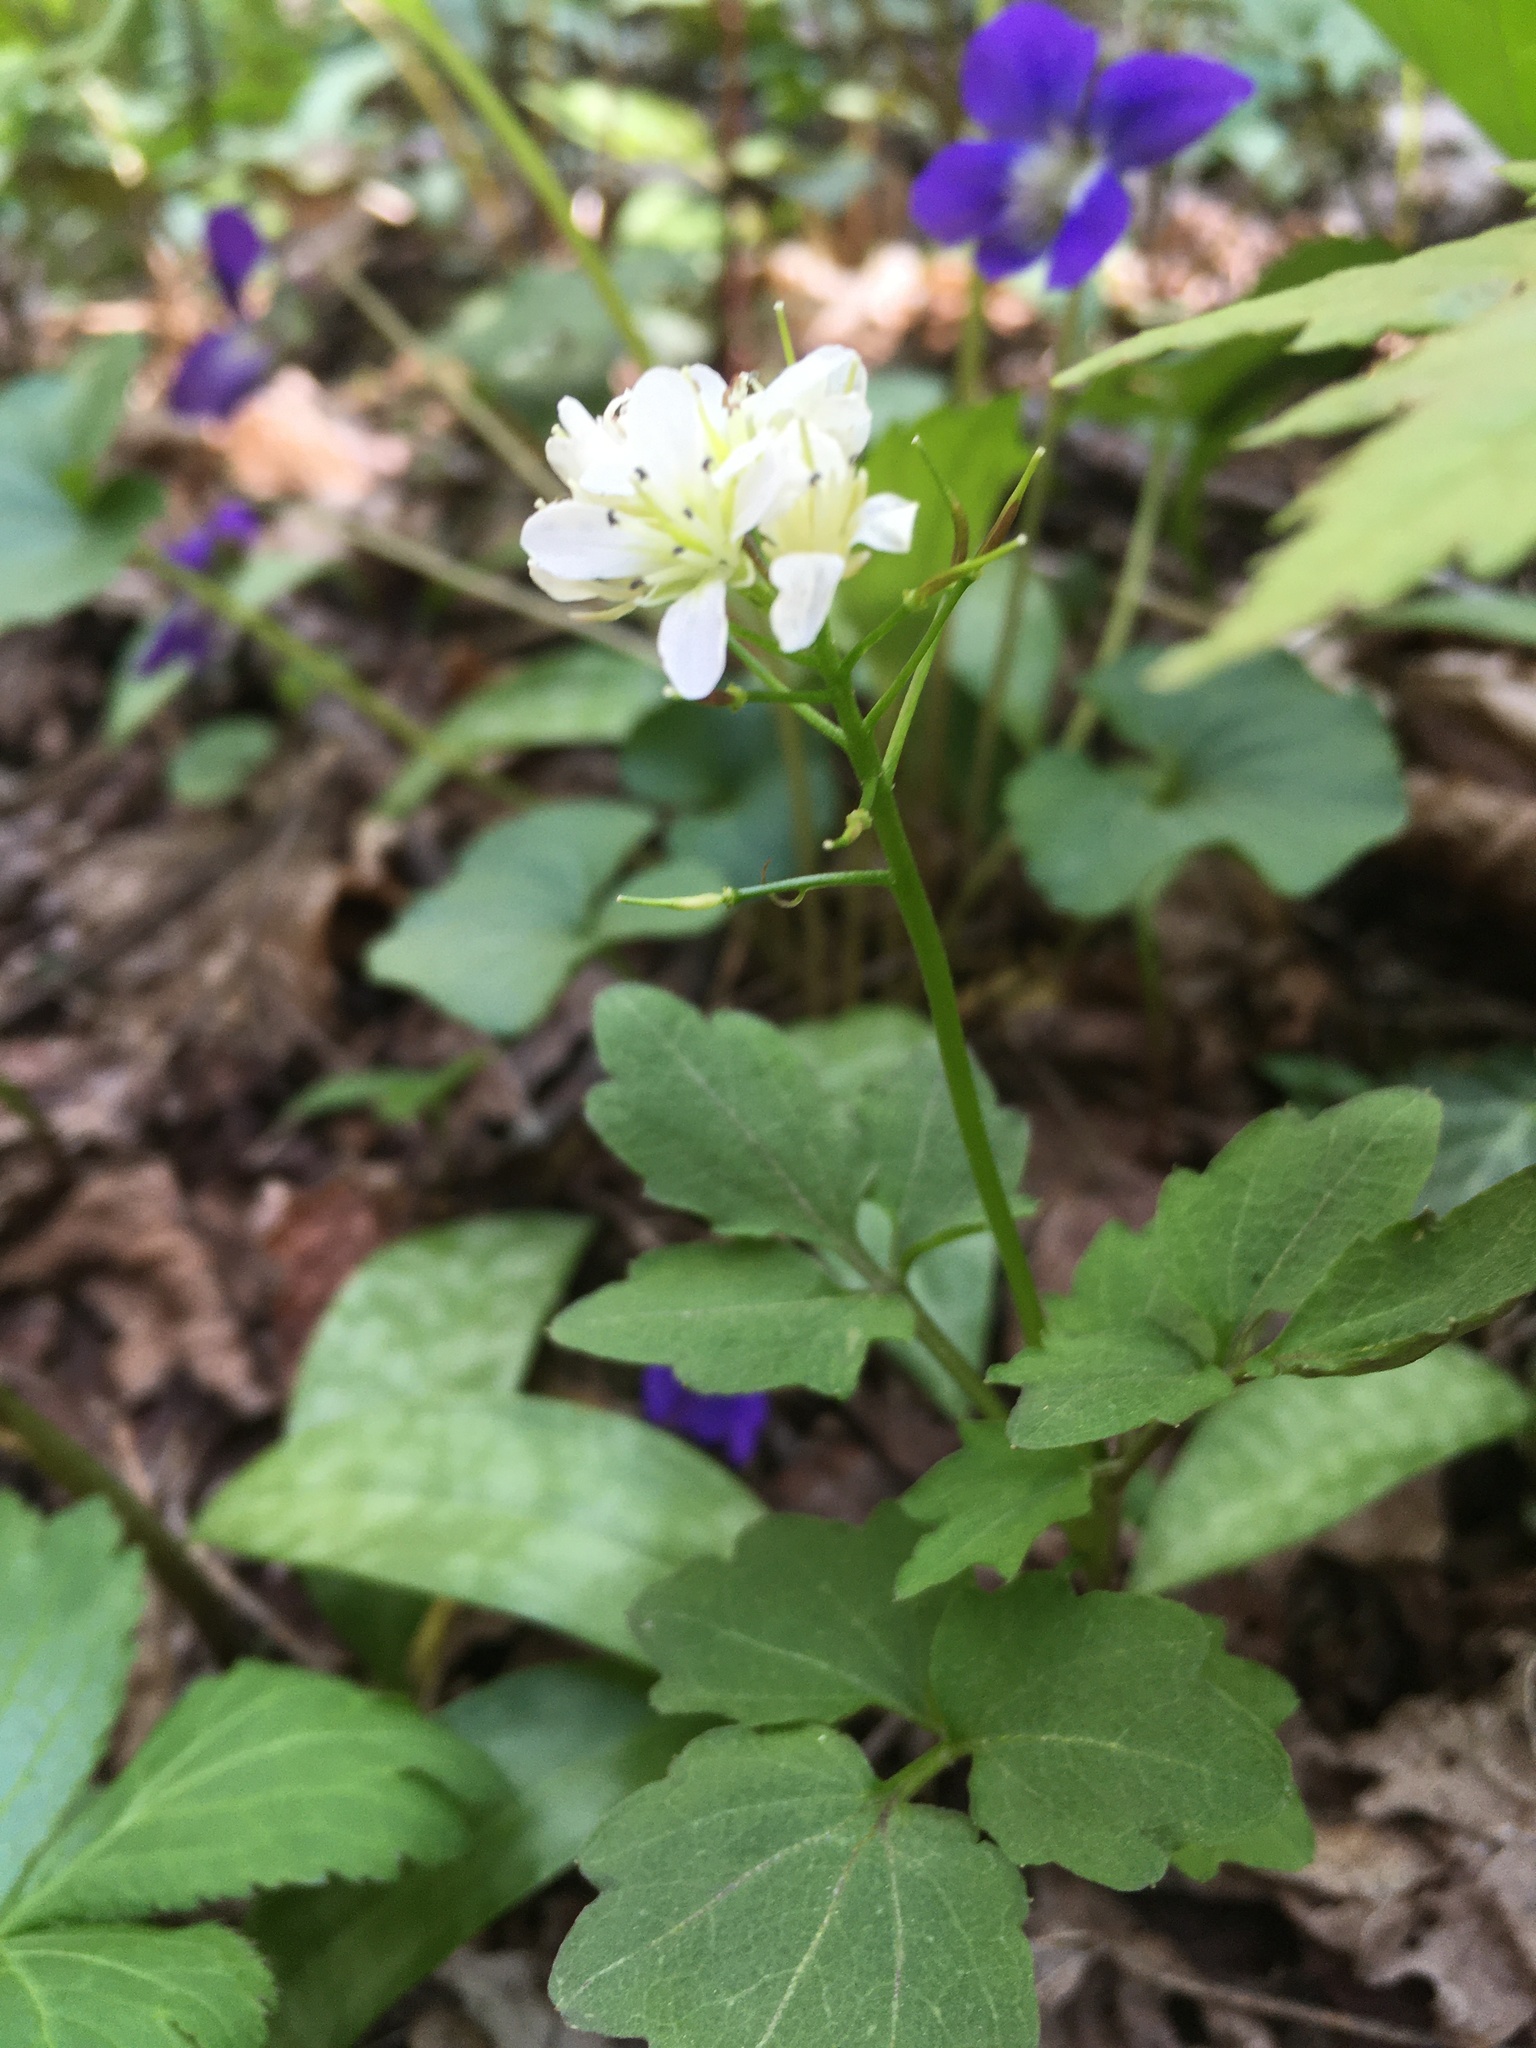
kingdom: Plantae
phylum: Tracheophyta
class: Magnoliopsida
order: Brassicales
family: Brassicaceae
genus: Cardamine
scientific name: Cardamine diphylla
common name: Broad-leaved toothwort
